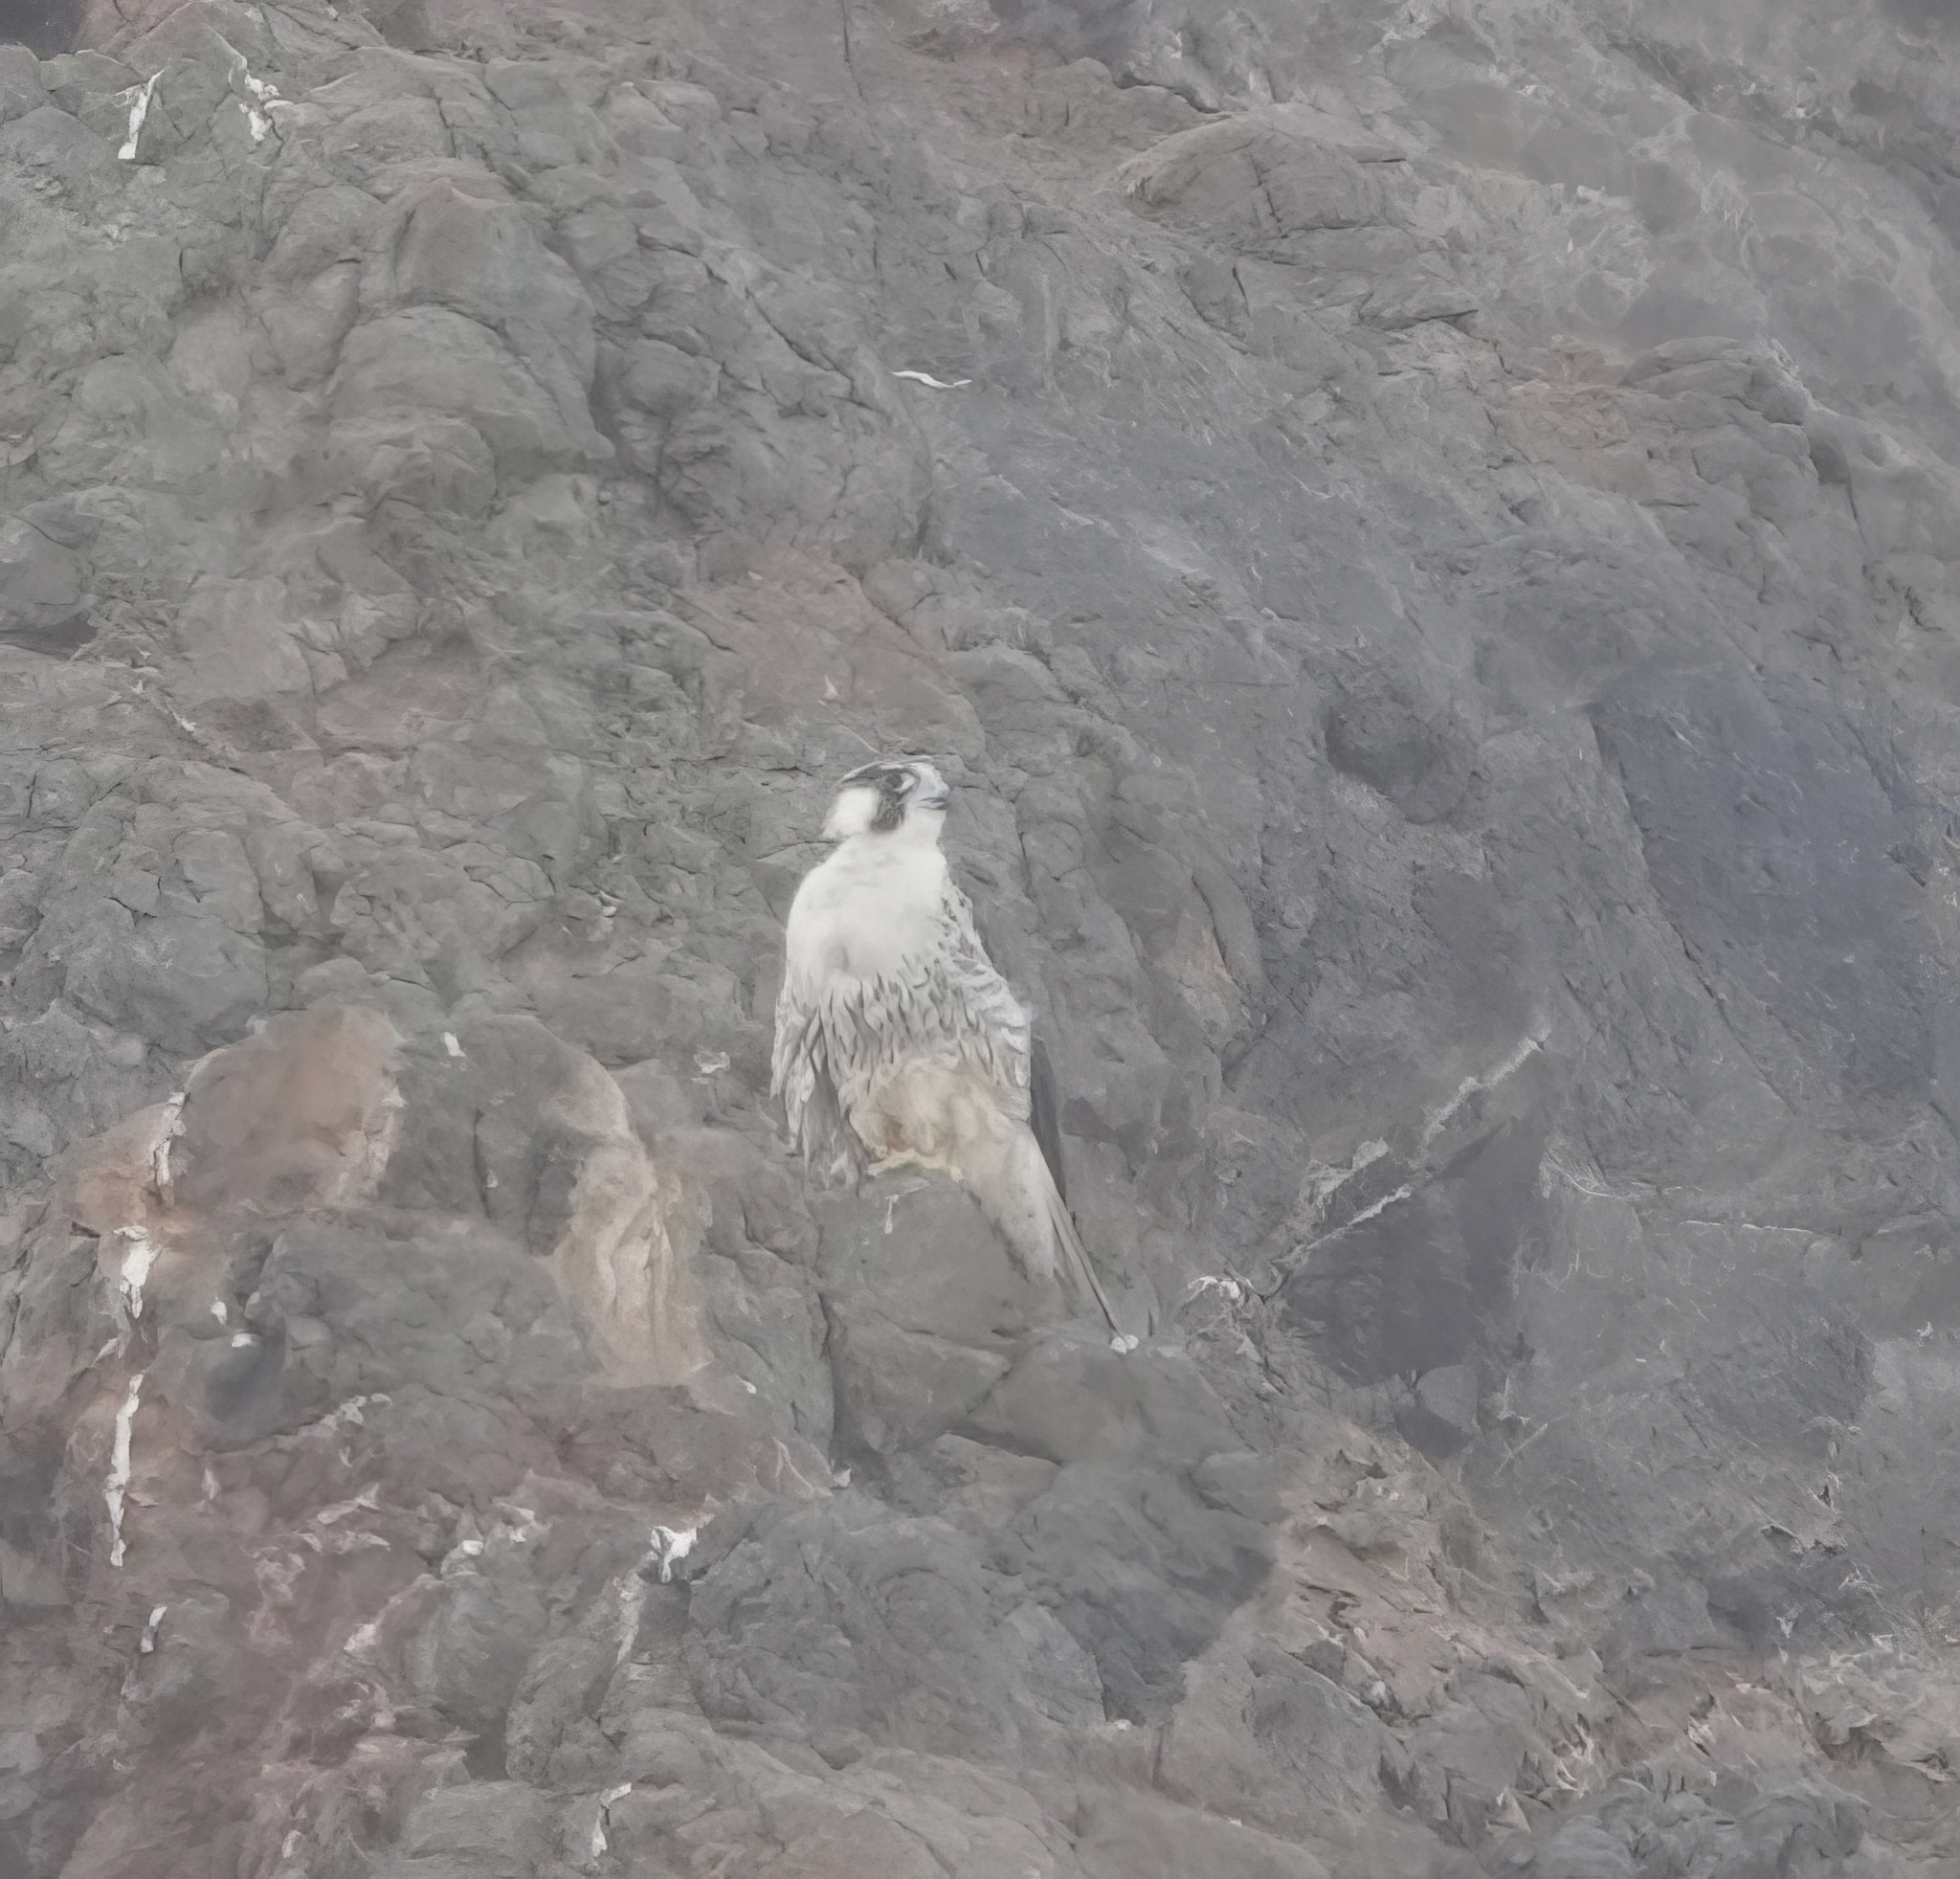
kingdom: Animalia
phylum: Chordata
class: Aves
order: Falconiformes
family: Falconidae
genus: Falco
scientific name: Falco peregrinus
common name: Peregrine falcon
